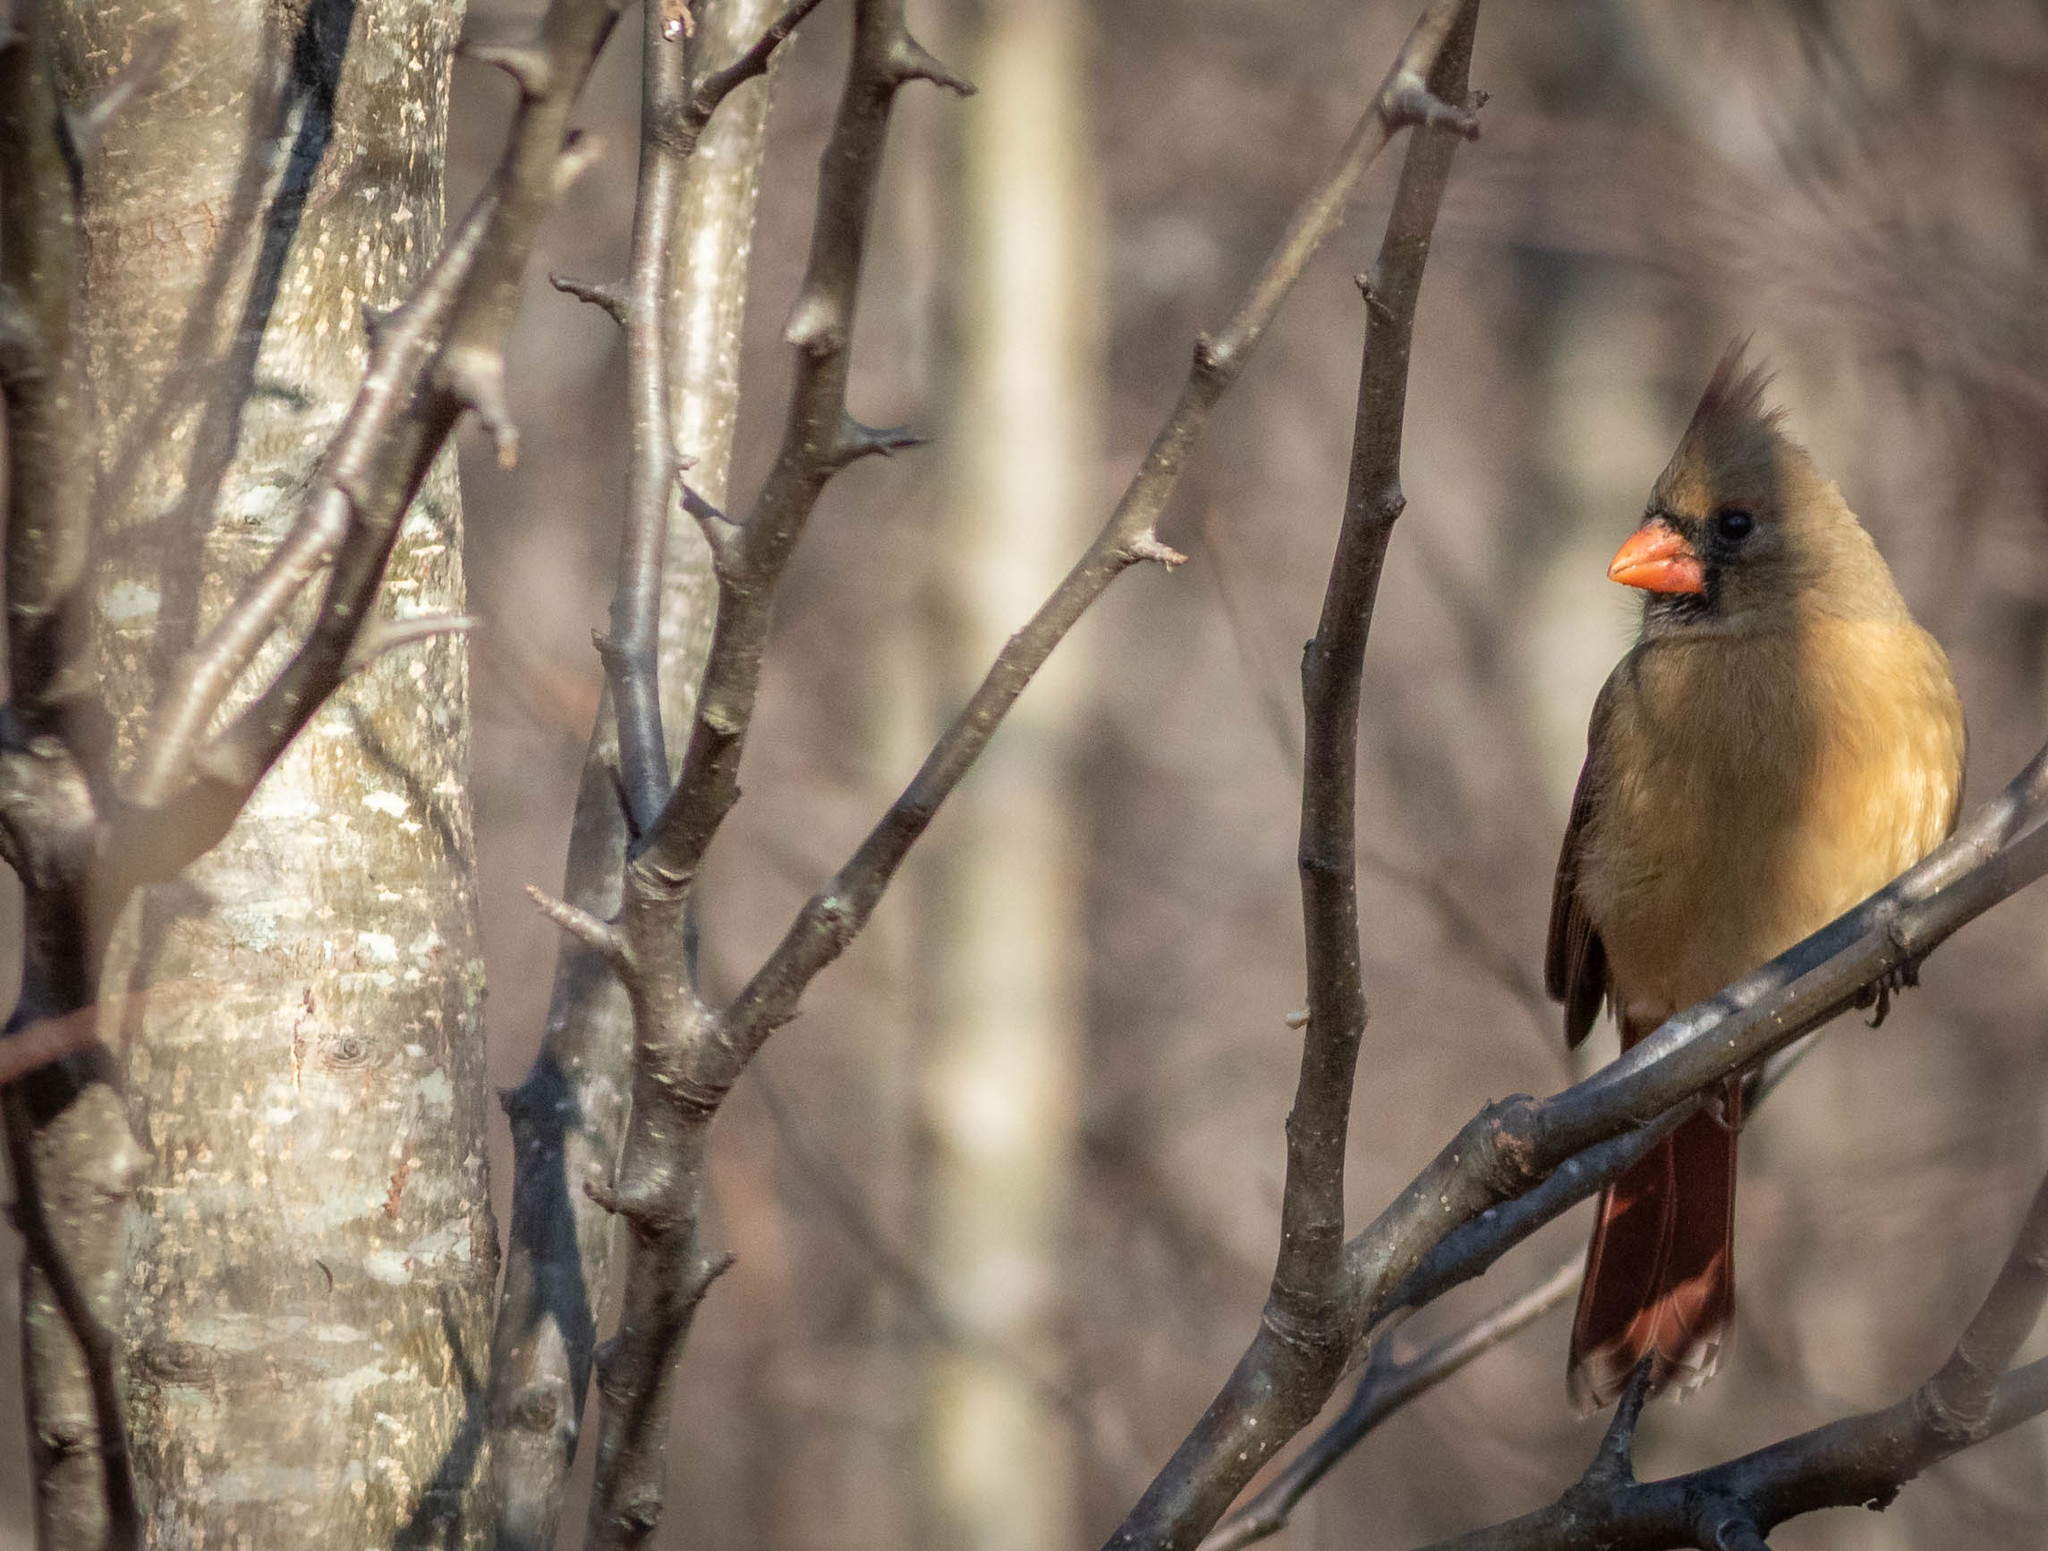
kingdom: Animalia
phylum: Chordata
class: Aves
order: Passeriformes
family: Cardinalidae
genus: Cardinalis
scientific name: Cardinalis cardinalis
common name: Northern cardinal
